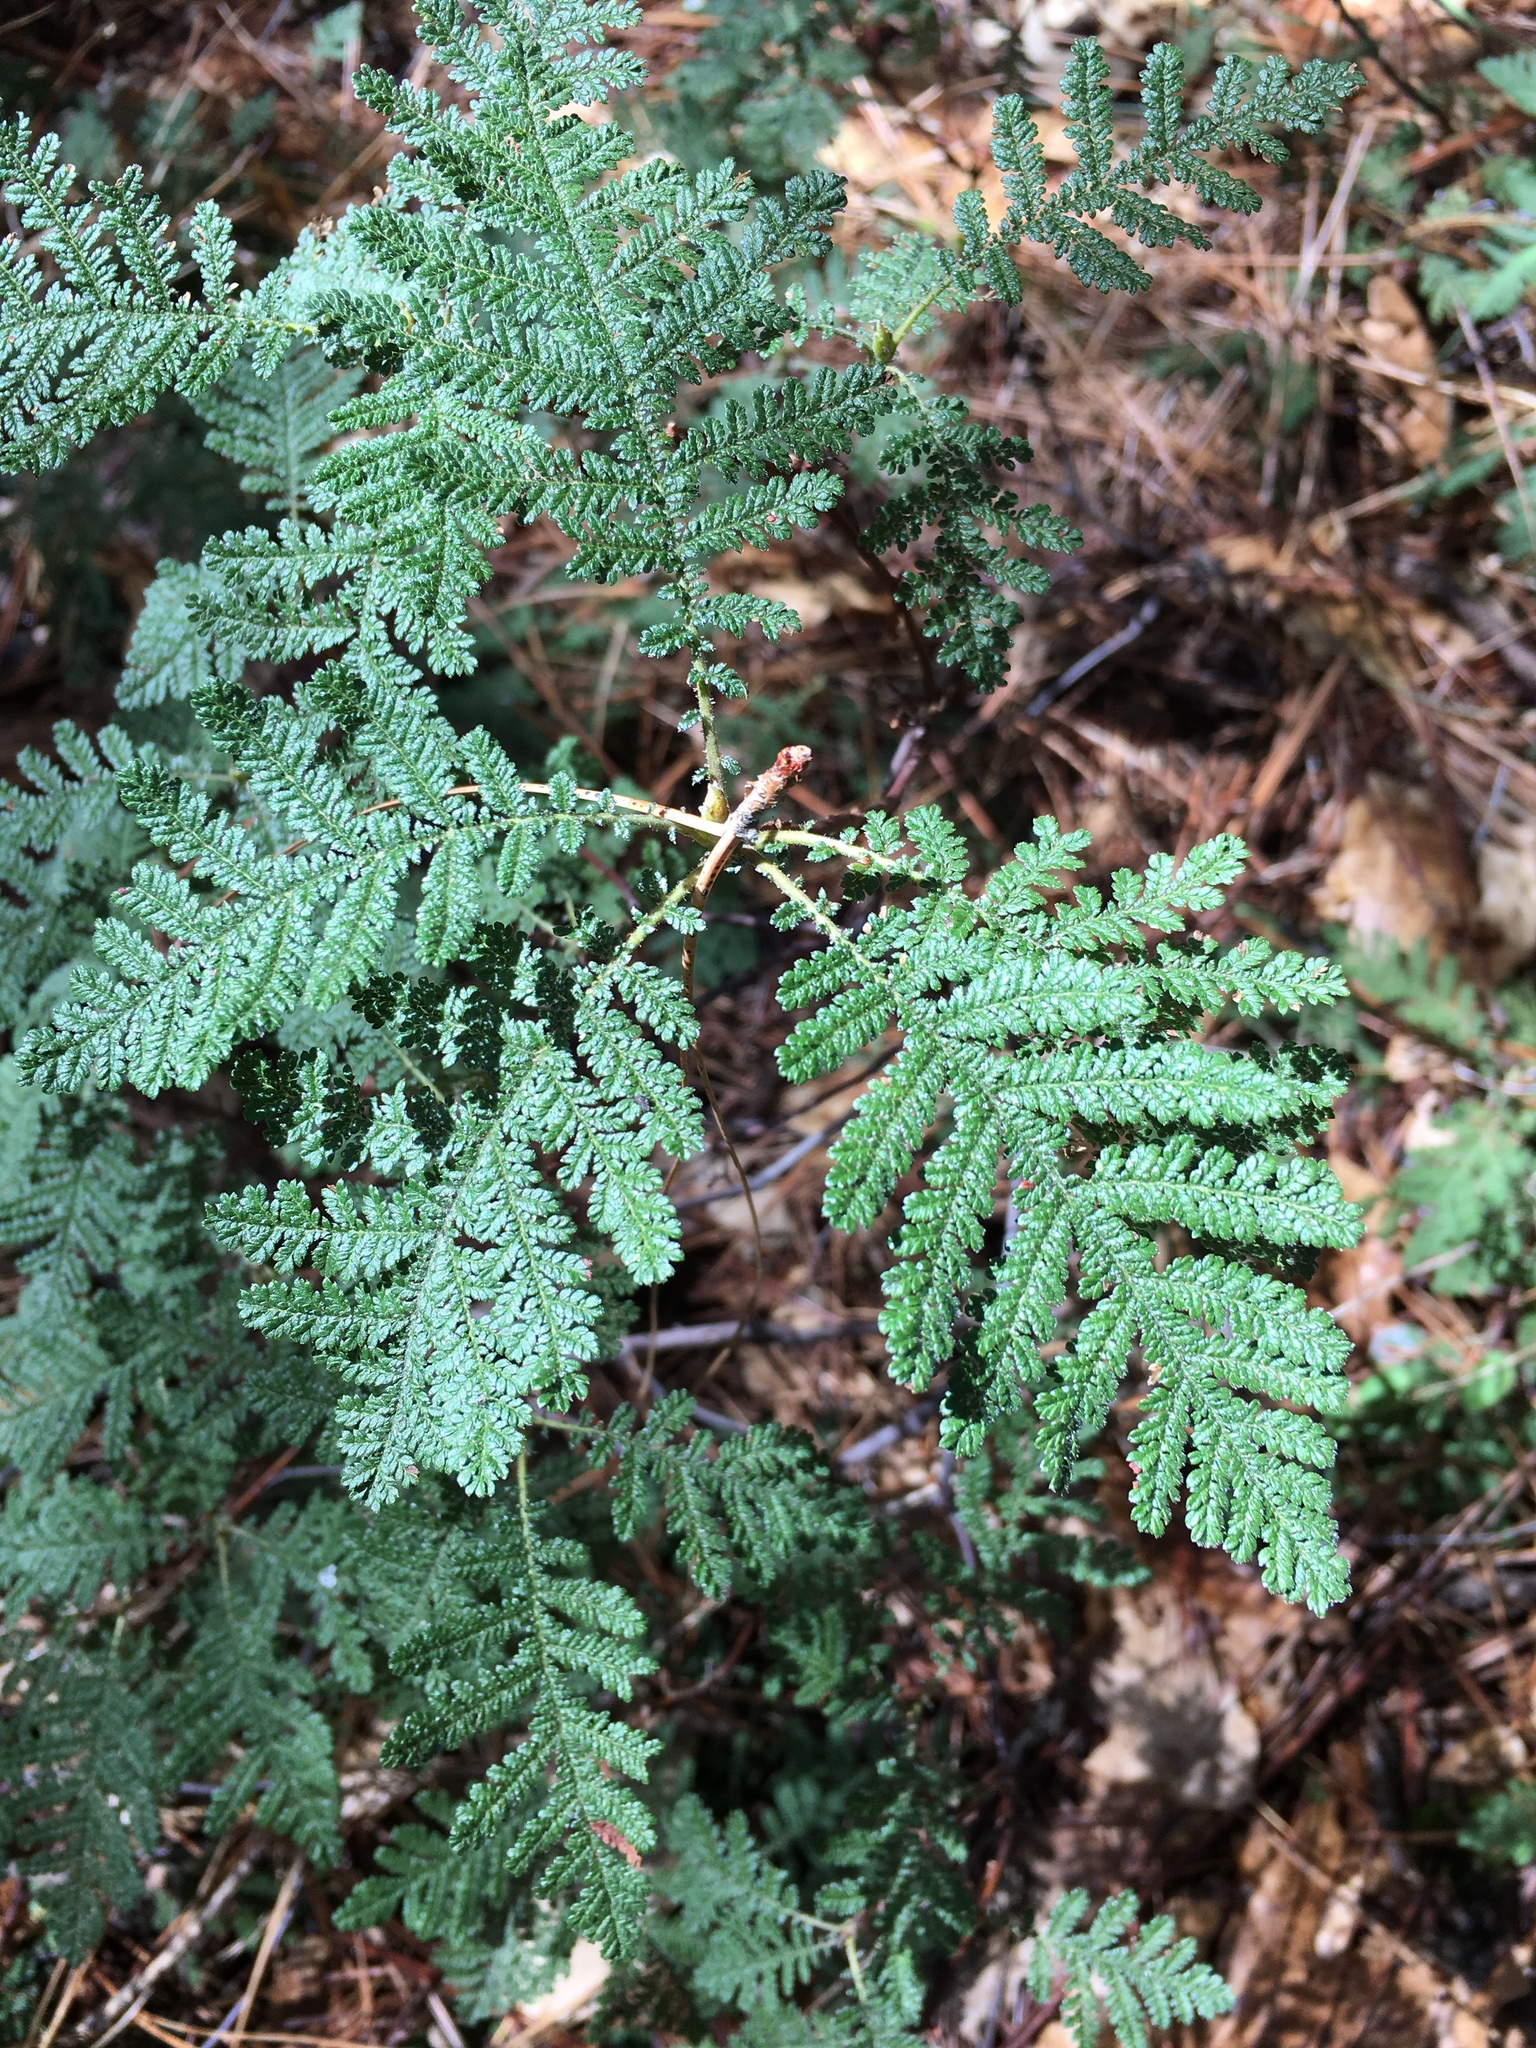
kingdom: Plantae
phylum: Tracheophyta
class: Magnoliopsida
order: Rosales
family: Rosaceae
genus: Chamaebatia
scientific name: Chamaebatia foliolosa
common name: Mountain misery
